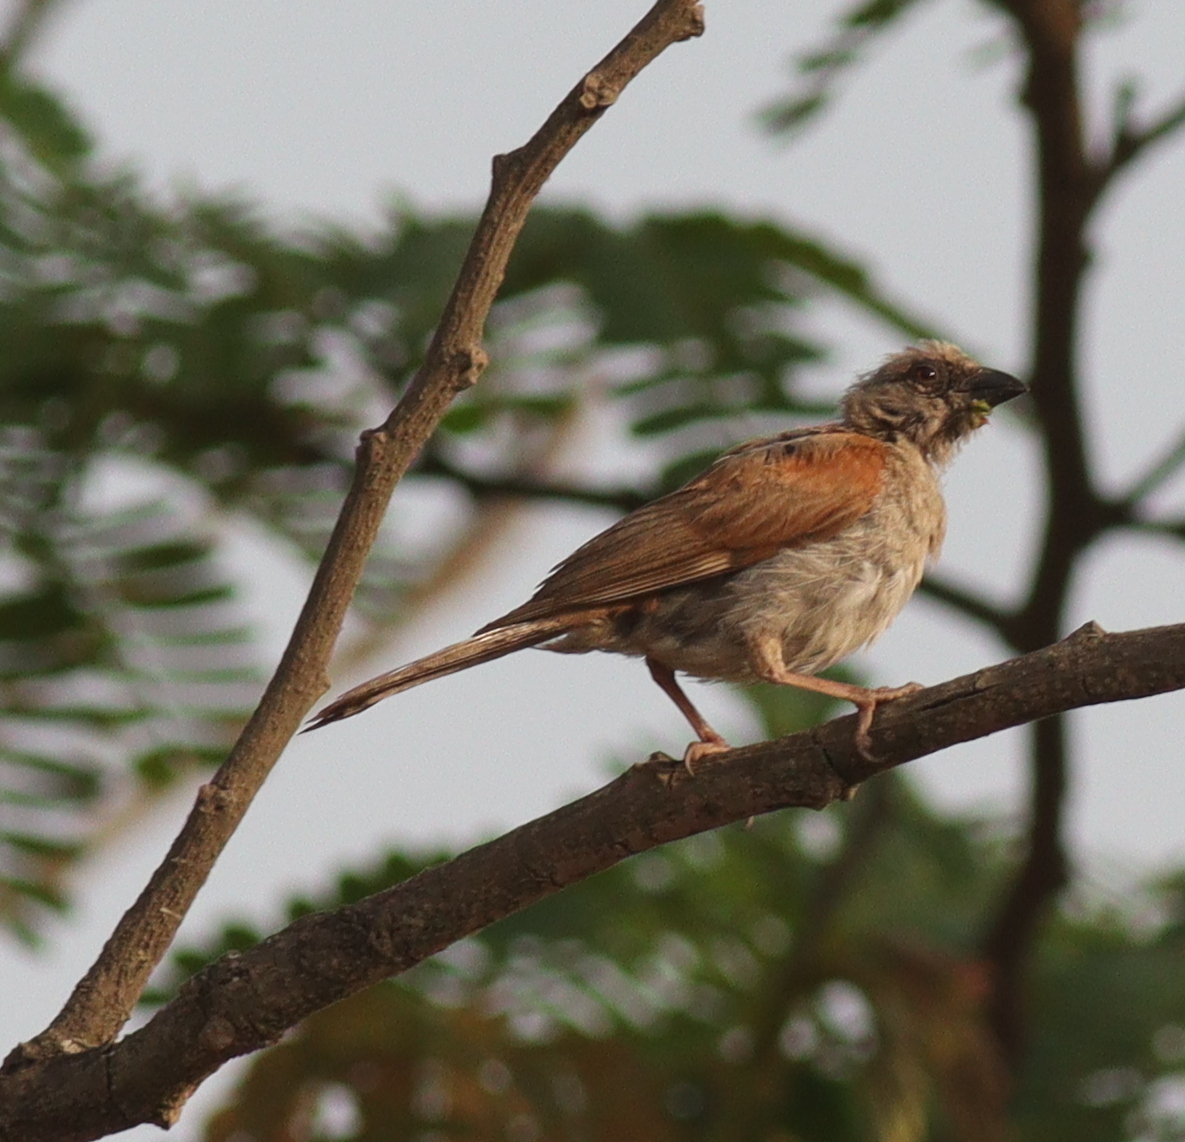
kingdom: Animalia
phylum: Chordata
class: Aves
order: Passeriformes
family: Passeridae
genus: Passer
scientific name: Passer griseus
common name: Northern grey-headed sparrow
